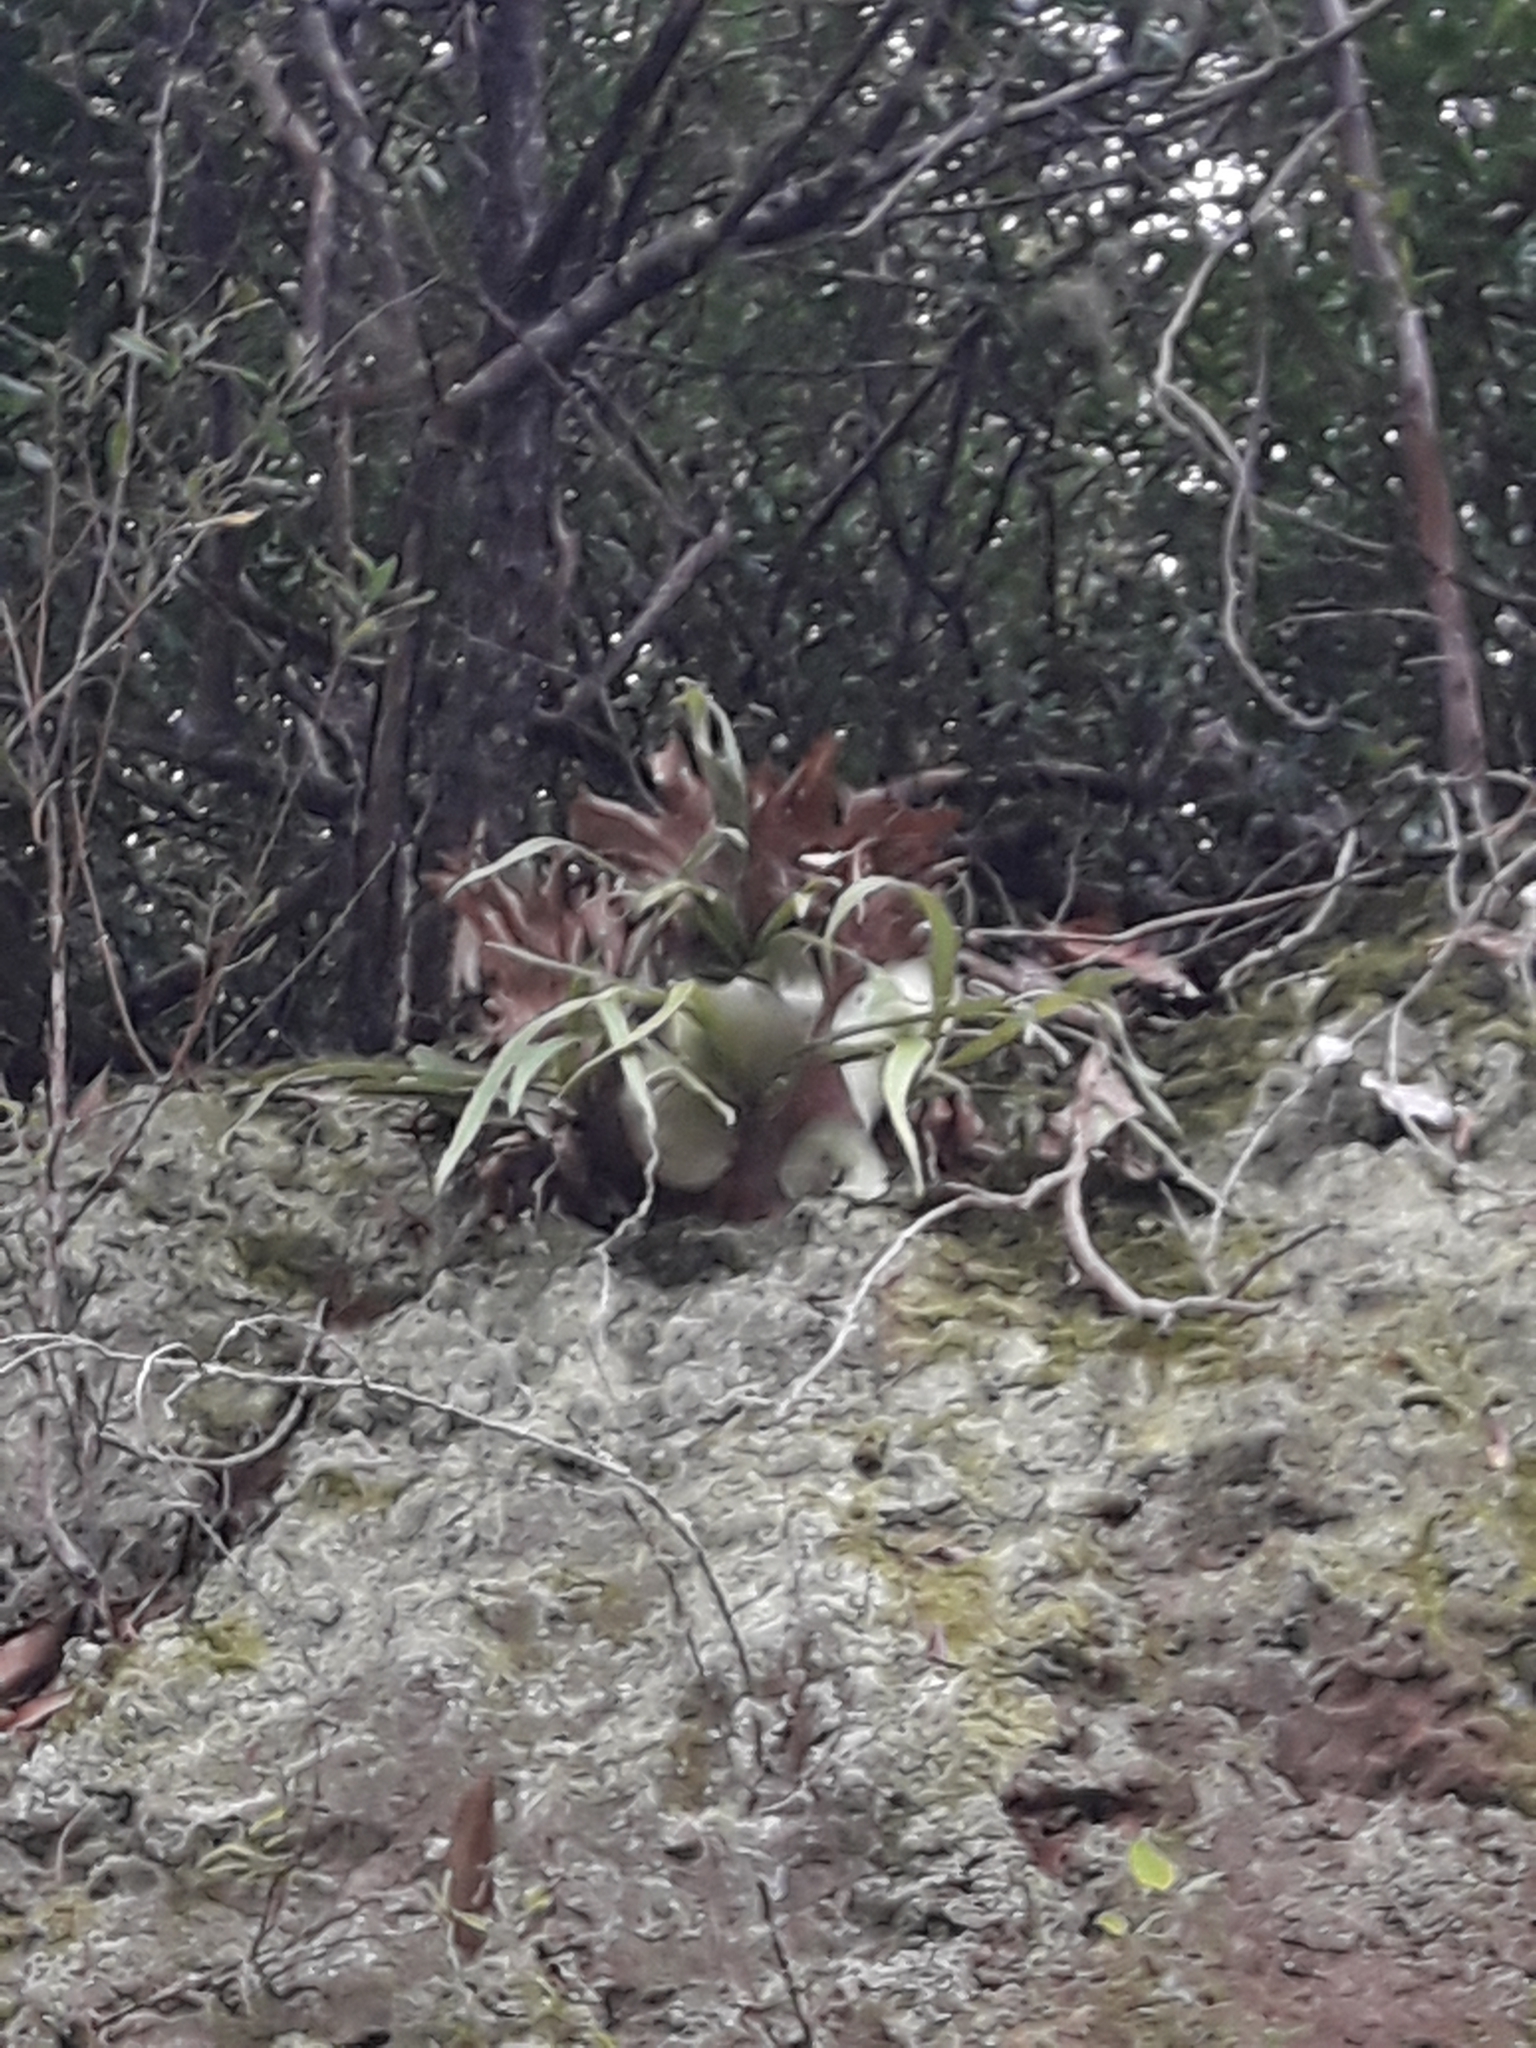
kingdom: Plantae
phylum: Tracheophyta
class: Polypodiopsida
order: Polypodiales
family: Polypodiaceae
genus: Platycerium
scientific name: Platycerium bifurcatum
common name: Elkhorn fern
